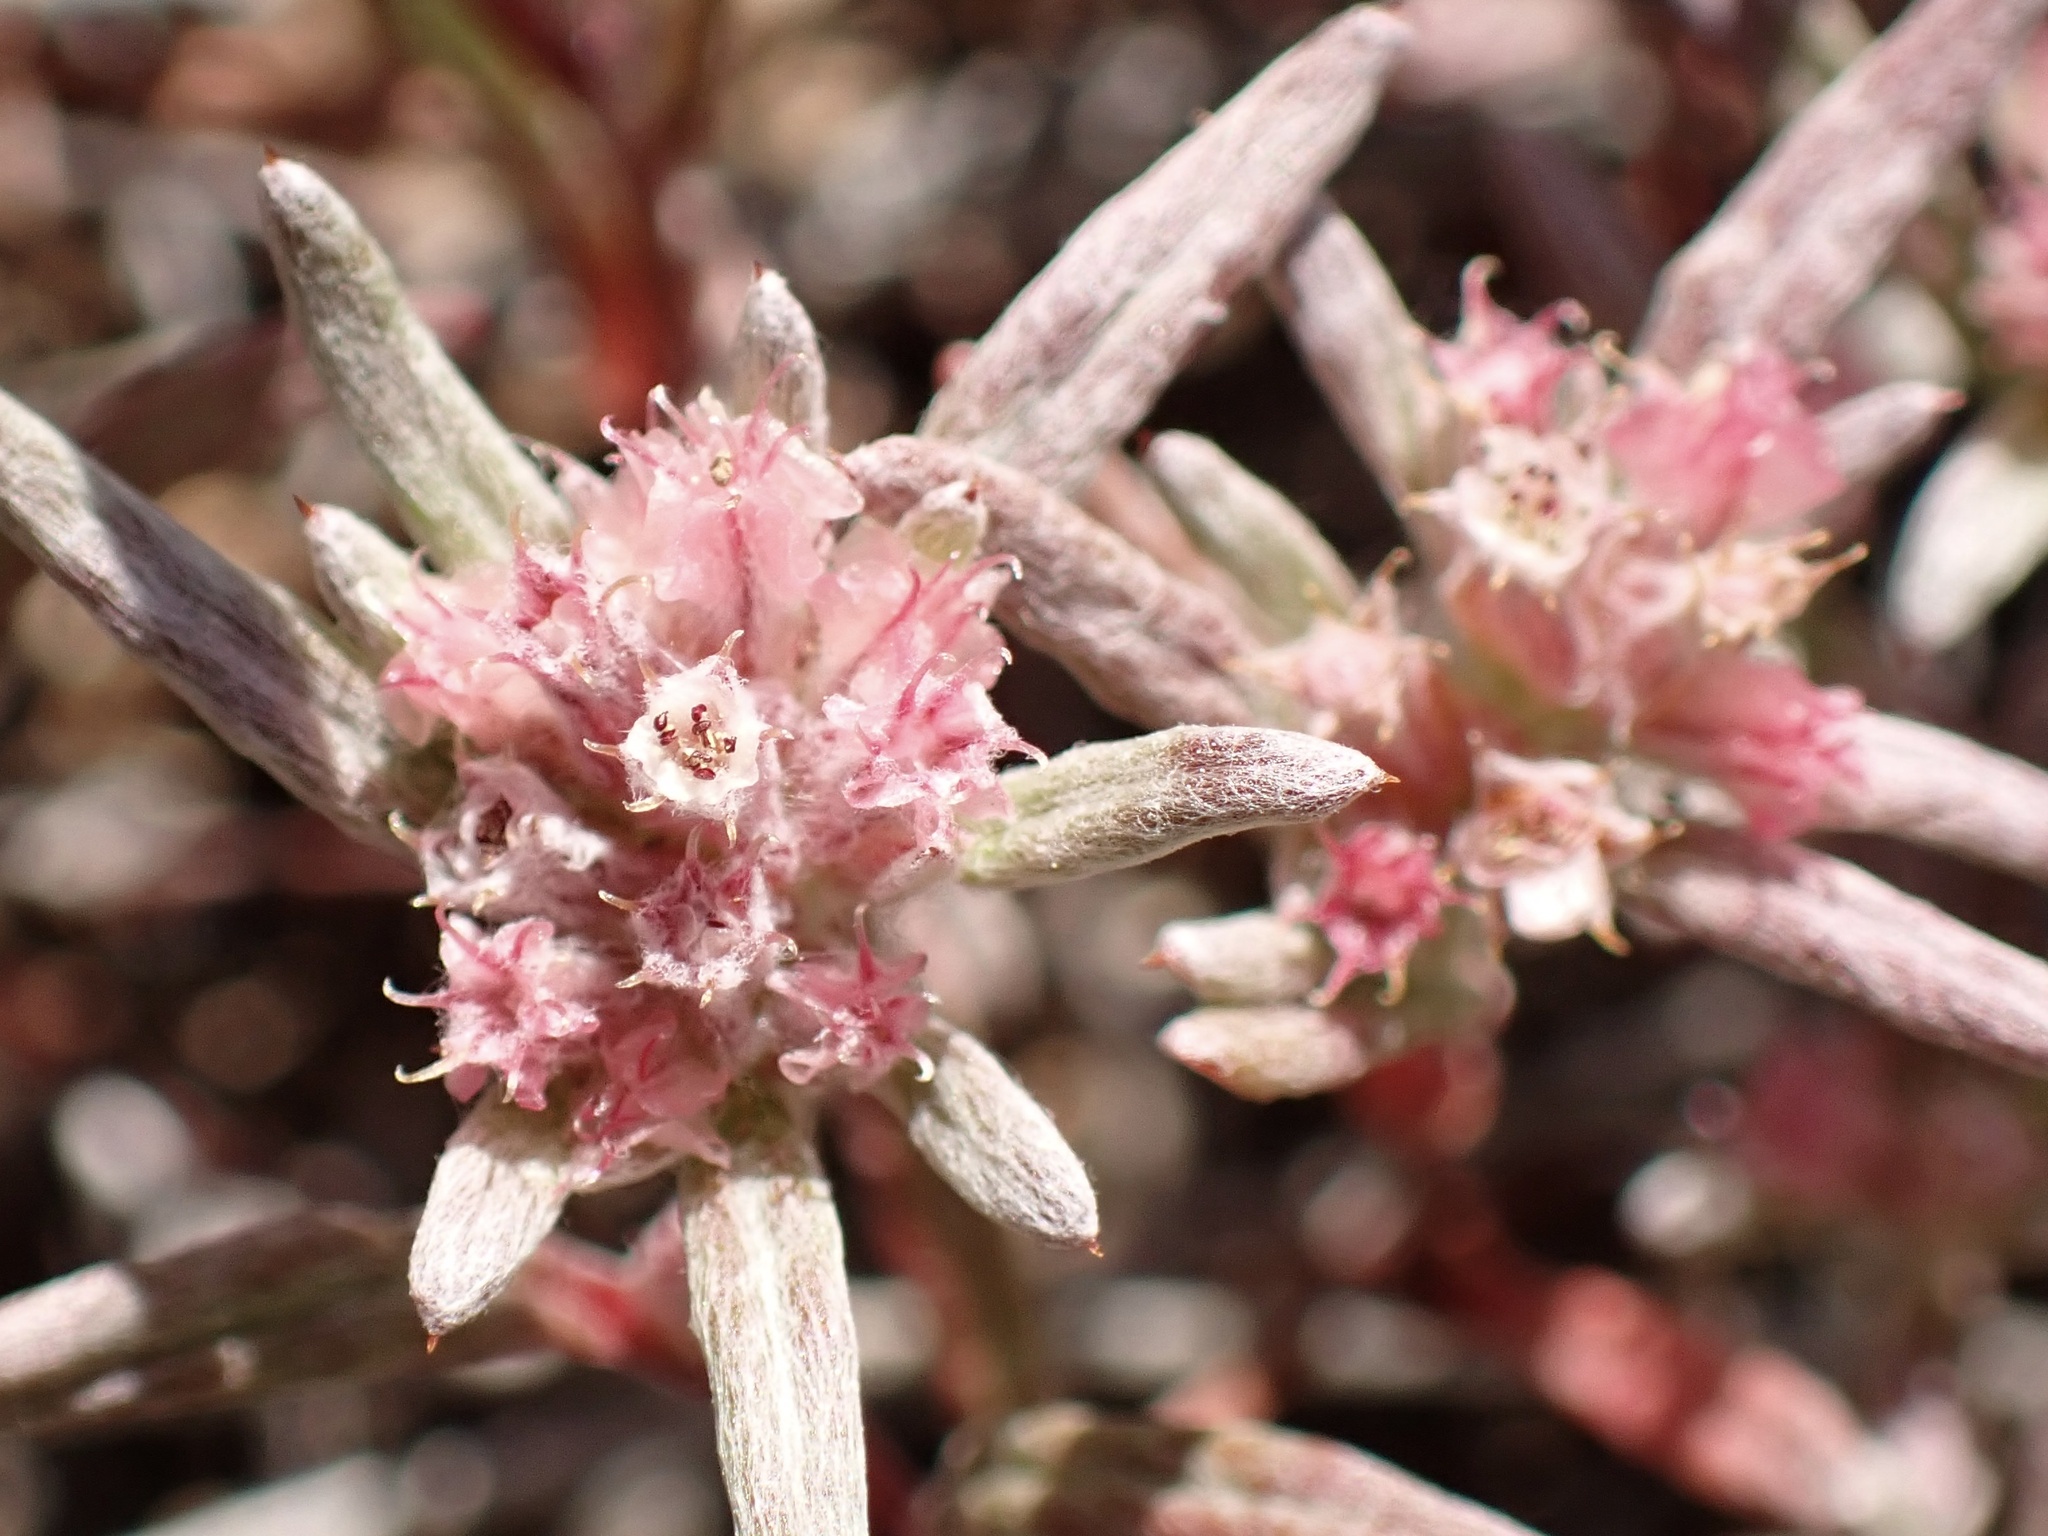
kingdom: Plantae
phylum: Tracheophyta
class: Magnoliopsida
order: Caryophyllales
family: Polygonaceae
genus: Chorizanthe
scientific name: Chorizanthe membranacea
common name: Pink spineflower
